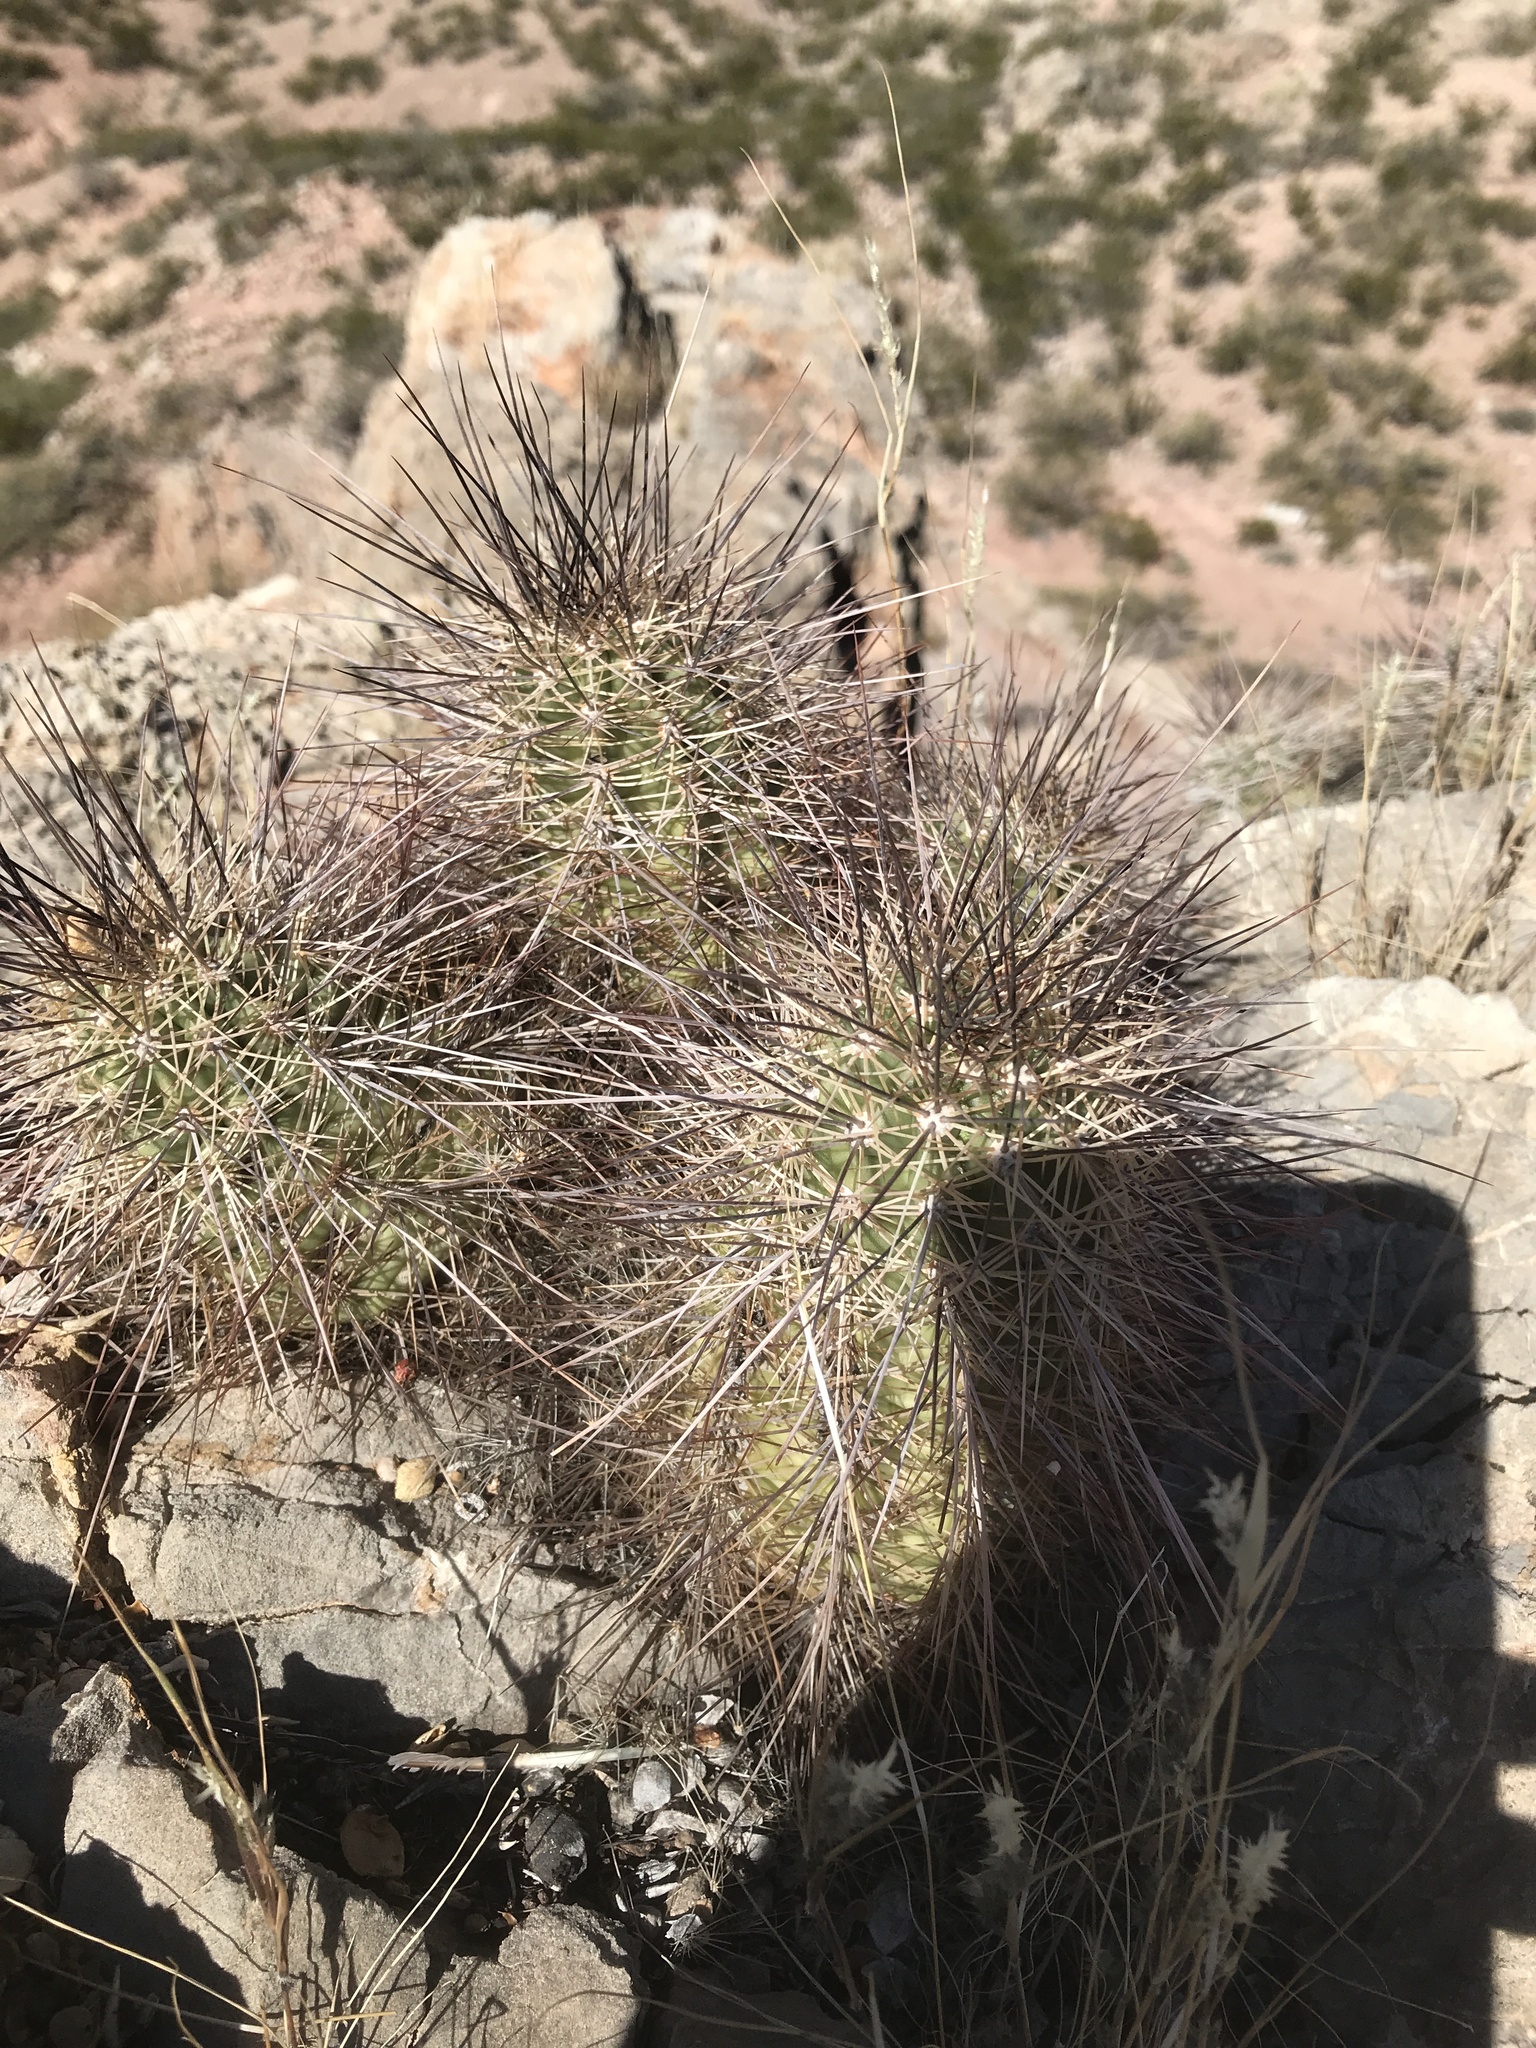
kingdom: Plantae
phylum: Tracheophyta
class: Magnoliopsida
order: Caryophyllales
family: Cactaceae
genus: Echinocereus
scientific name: Echinocereus coccineus
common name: Scarlet hedgehog cactus
